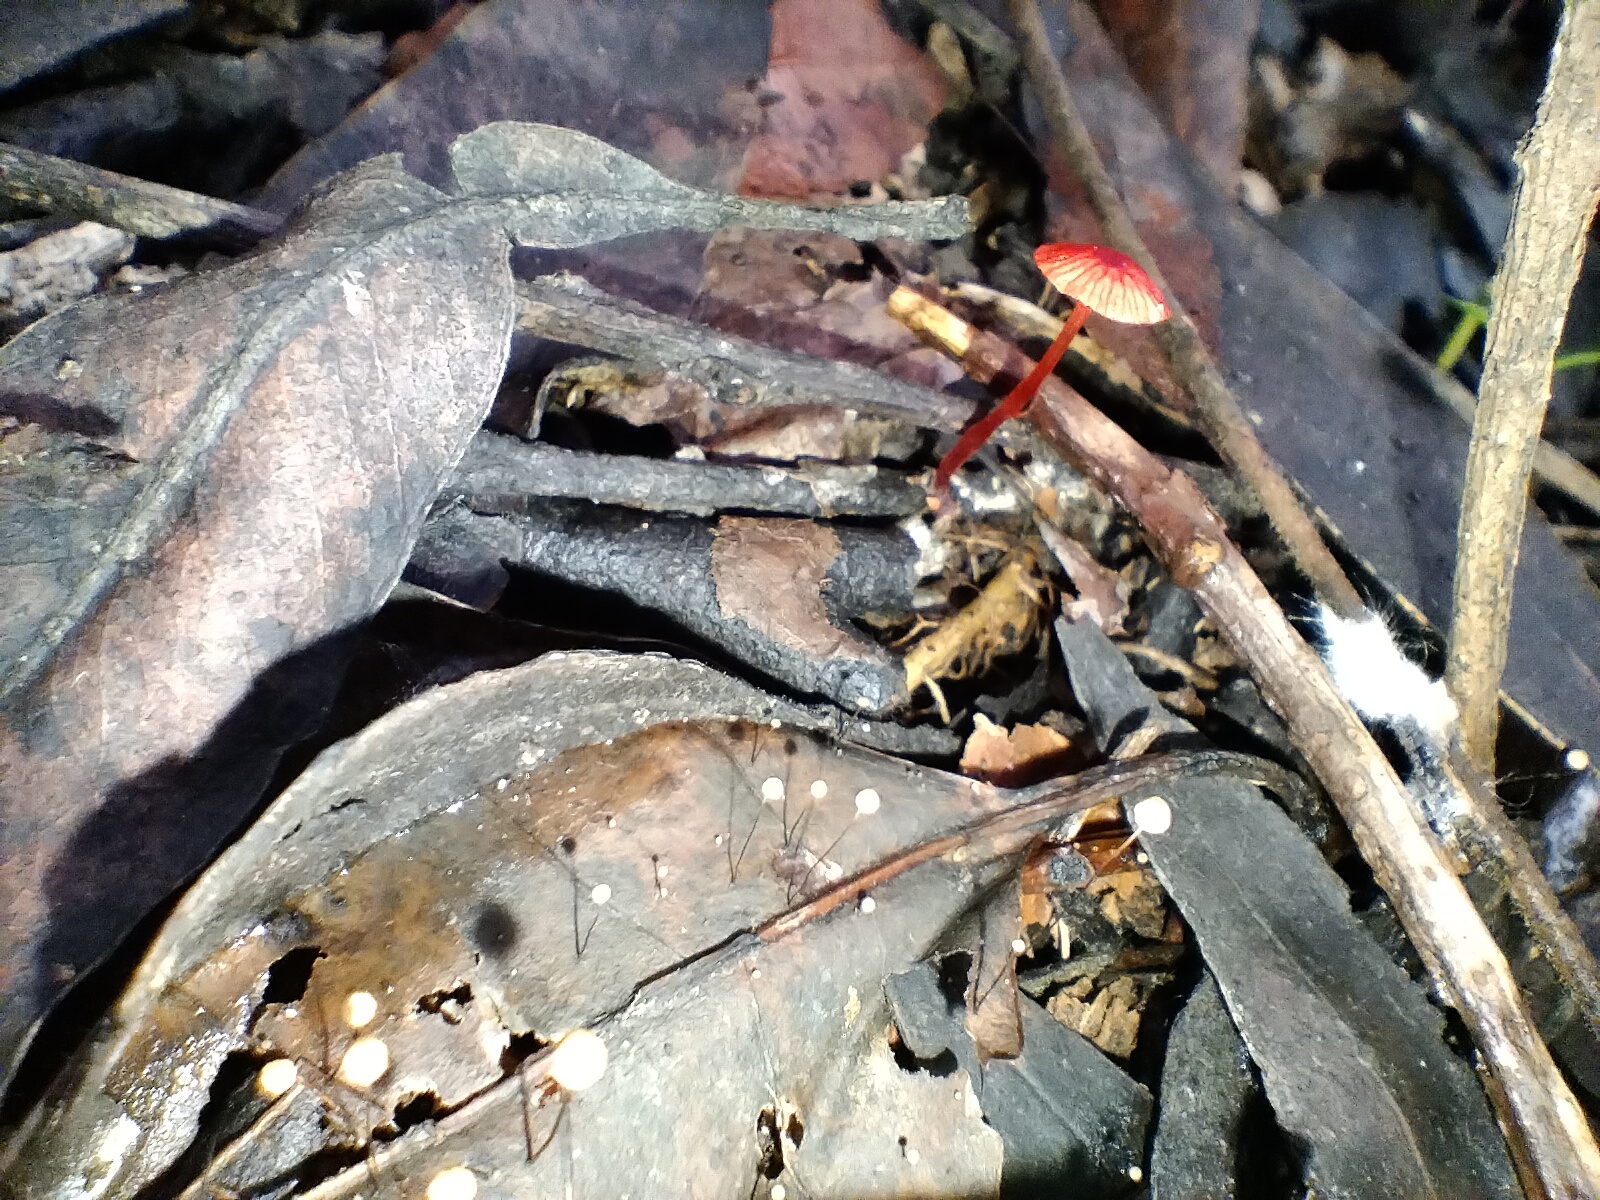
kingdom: Fungi
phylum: Basidiomycota
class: Agaricomycetes
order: Agaricales
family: Mycenaceae
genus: Cruentomycena
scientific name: Cruentomycena viscidocruenta
